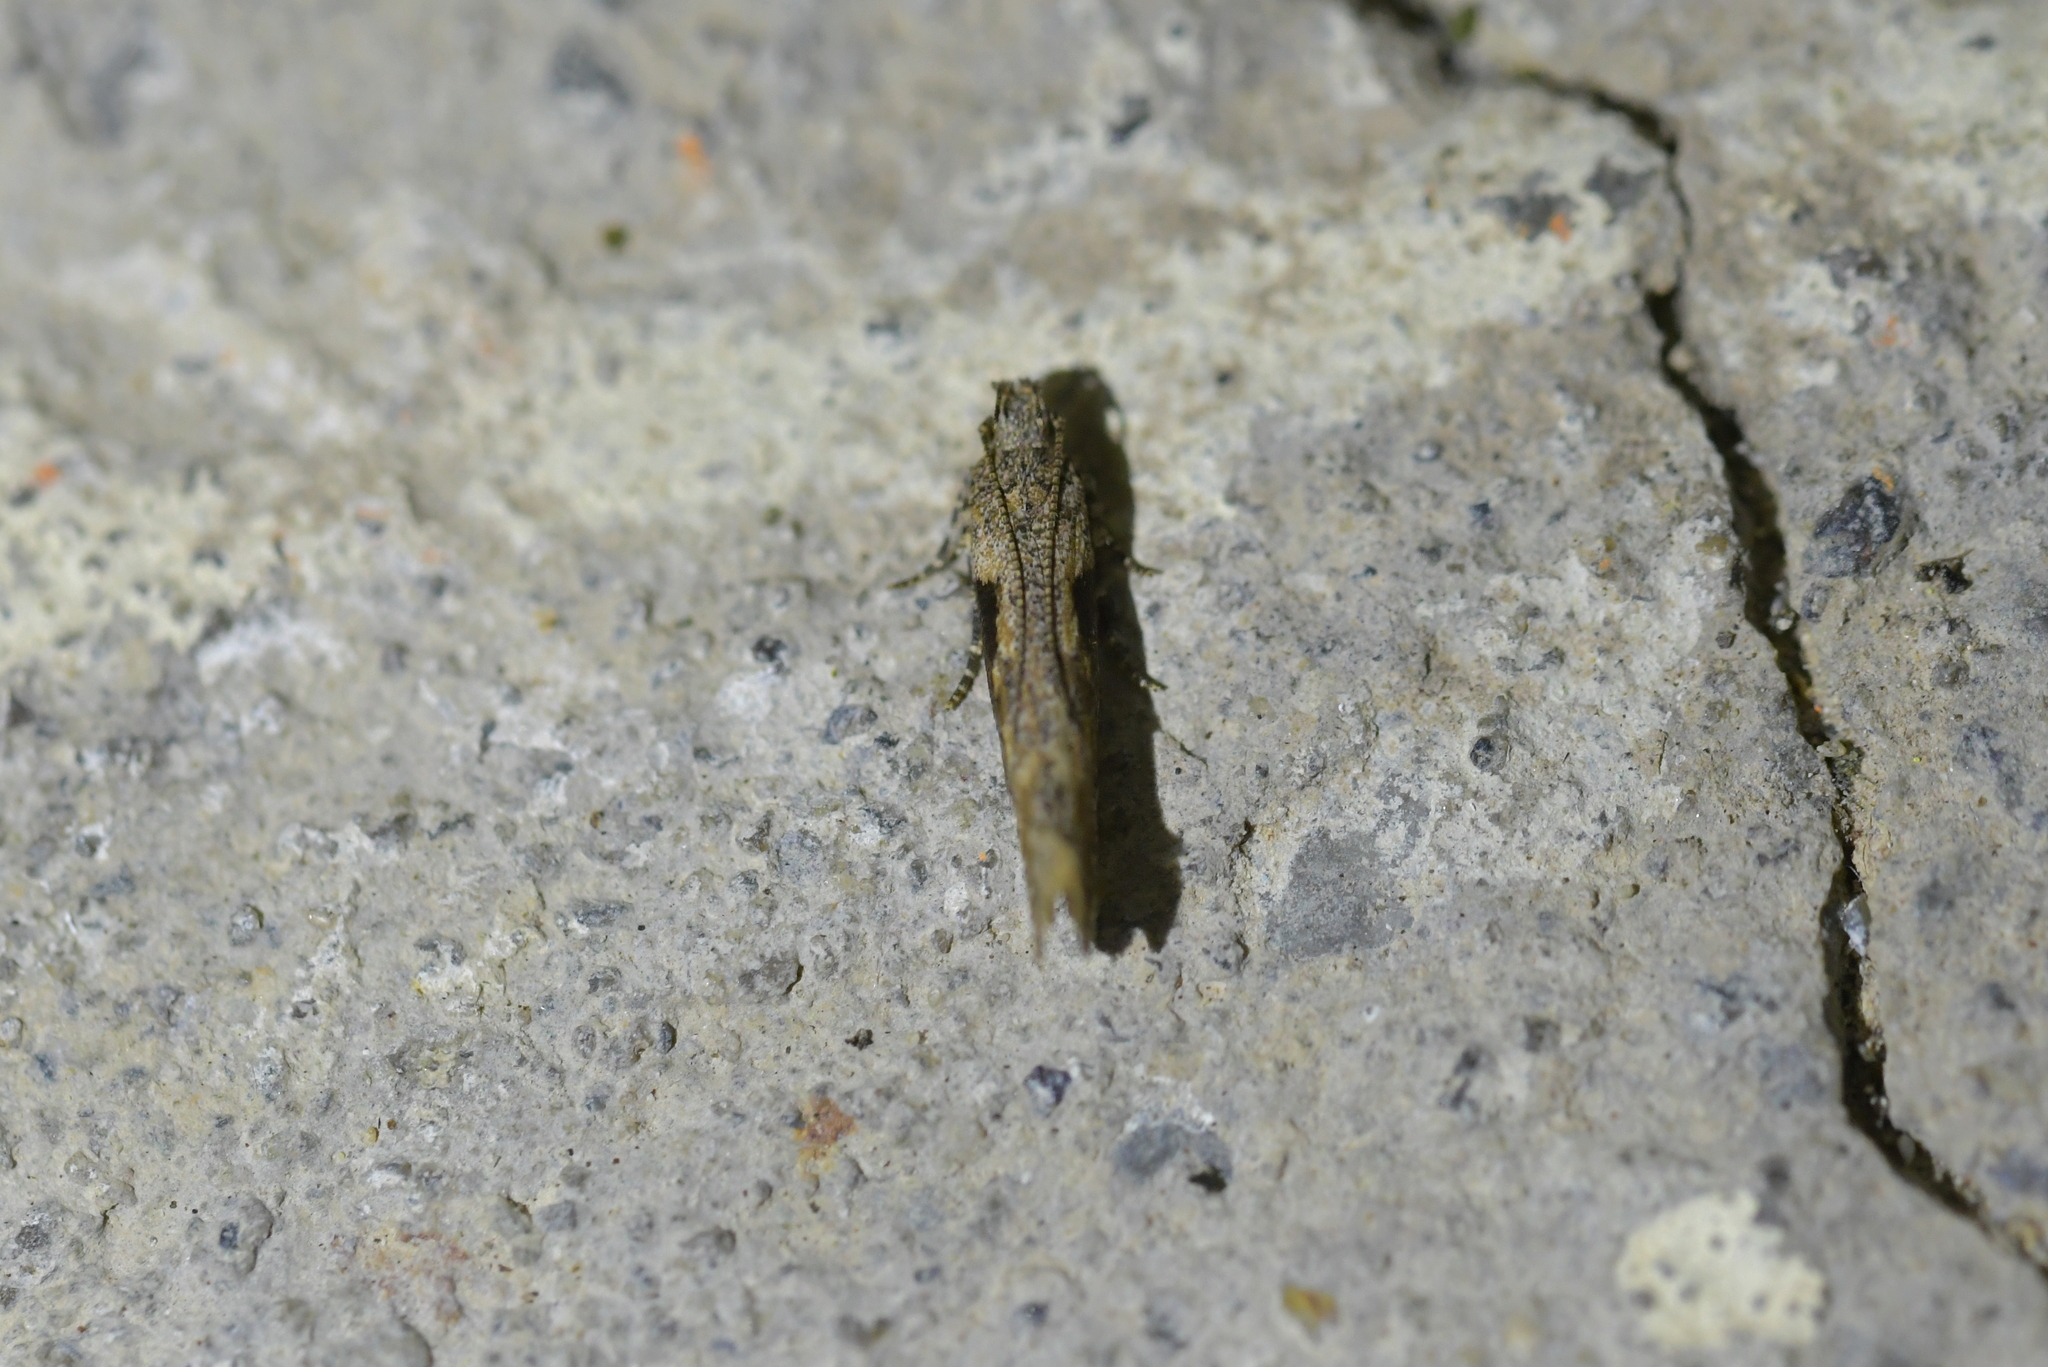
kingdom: Animalia
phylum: Arthropoda
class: Insecta
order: Lepidoptera
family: Gelechiidae
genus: Symmetrischema
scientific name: Symmetrischema tangolias
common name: Moth
